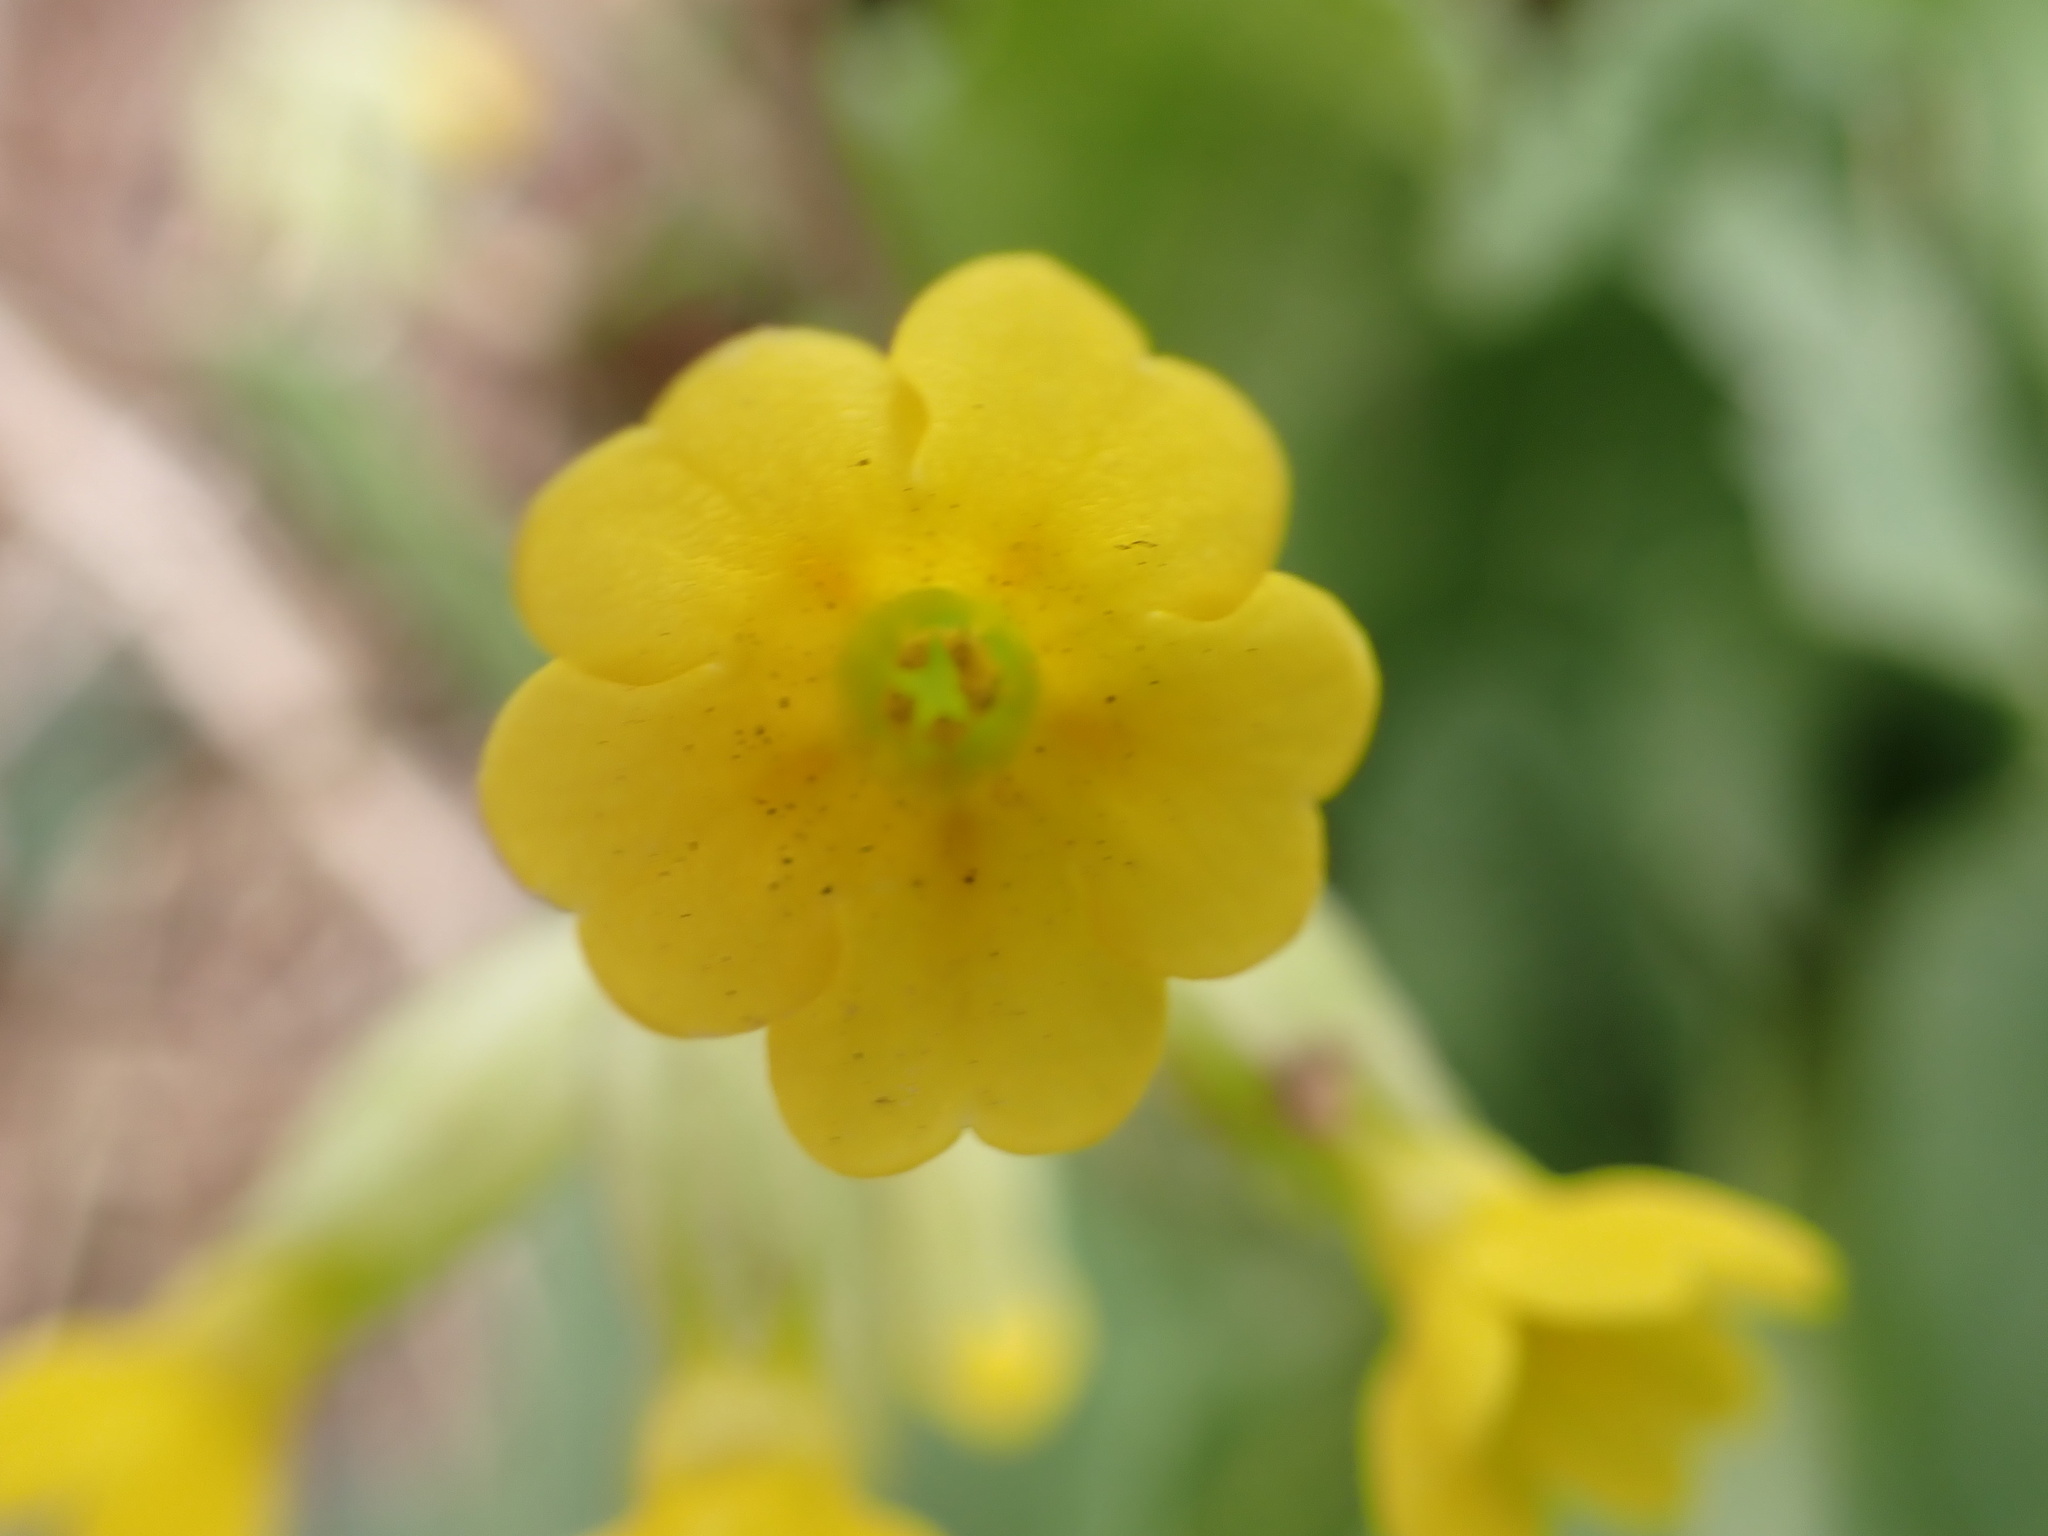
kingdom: Plantae
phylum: Tracheophyta
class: Magnoliopsida
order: Ericales
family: Primulaceae
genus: Primula
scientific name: Primula veris
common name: Cowslip
